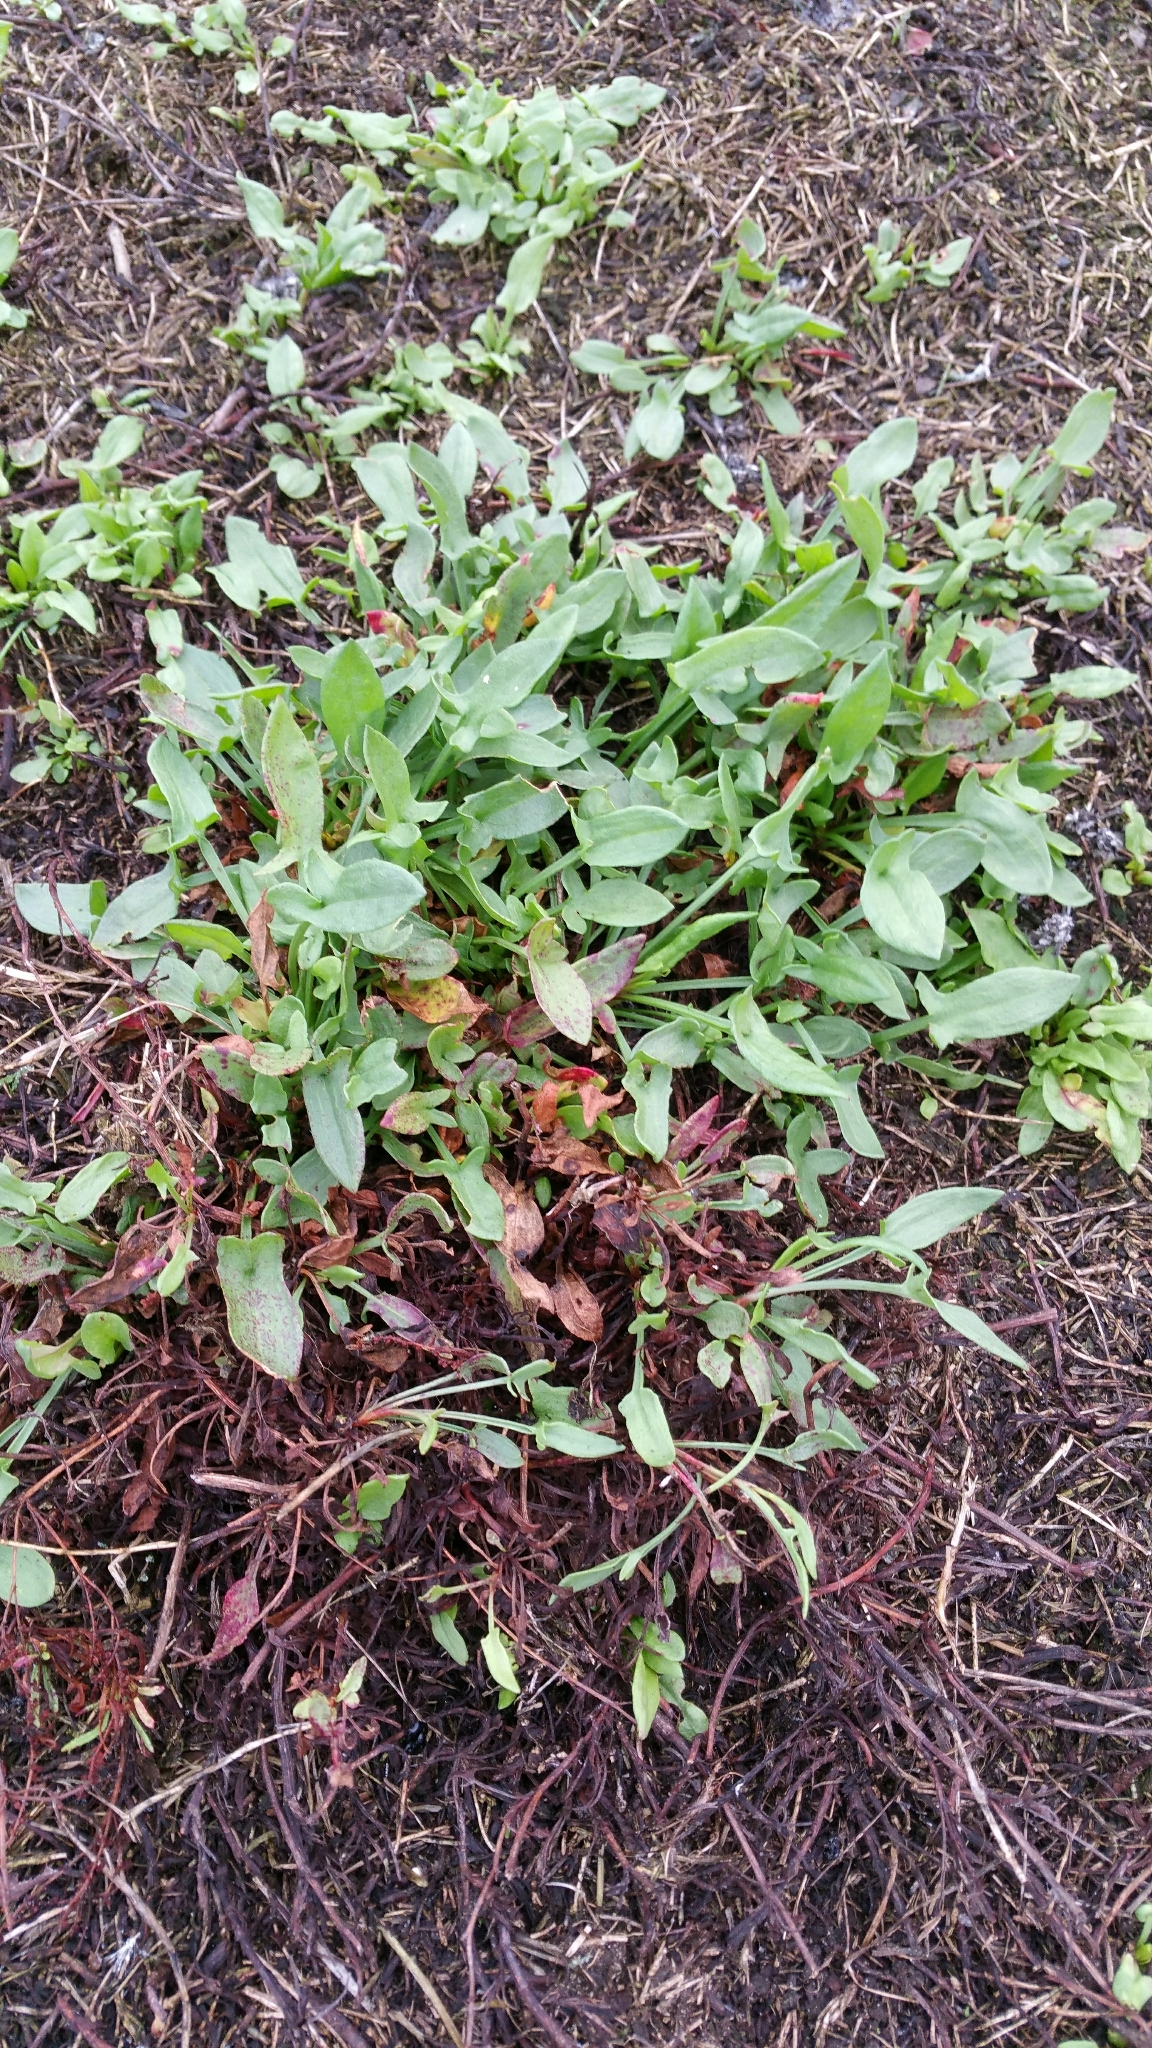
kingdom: Plantae
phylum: Tracheophyta
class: Magnoliopsida
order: Caryophyllales
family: Polygonaceae
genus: Rumex
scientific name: Rumex acetosella
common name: Common sheep sorrel
